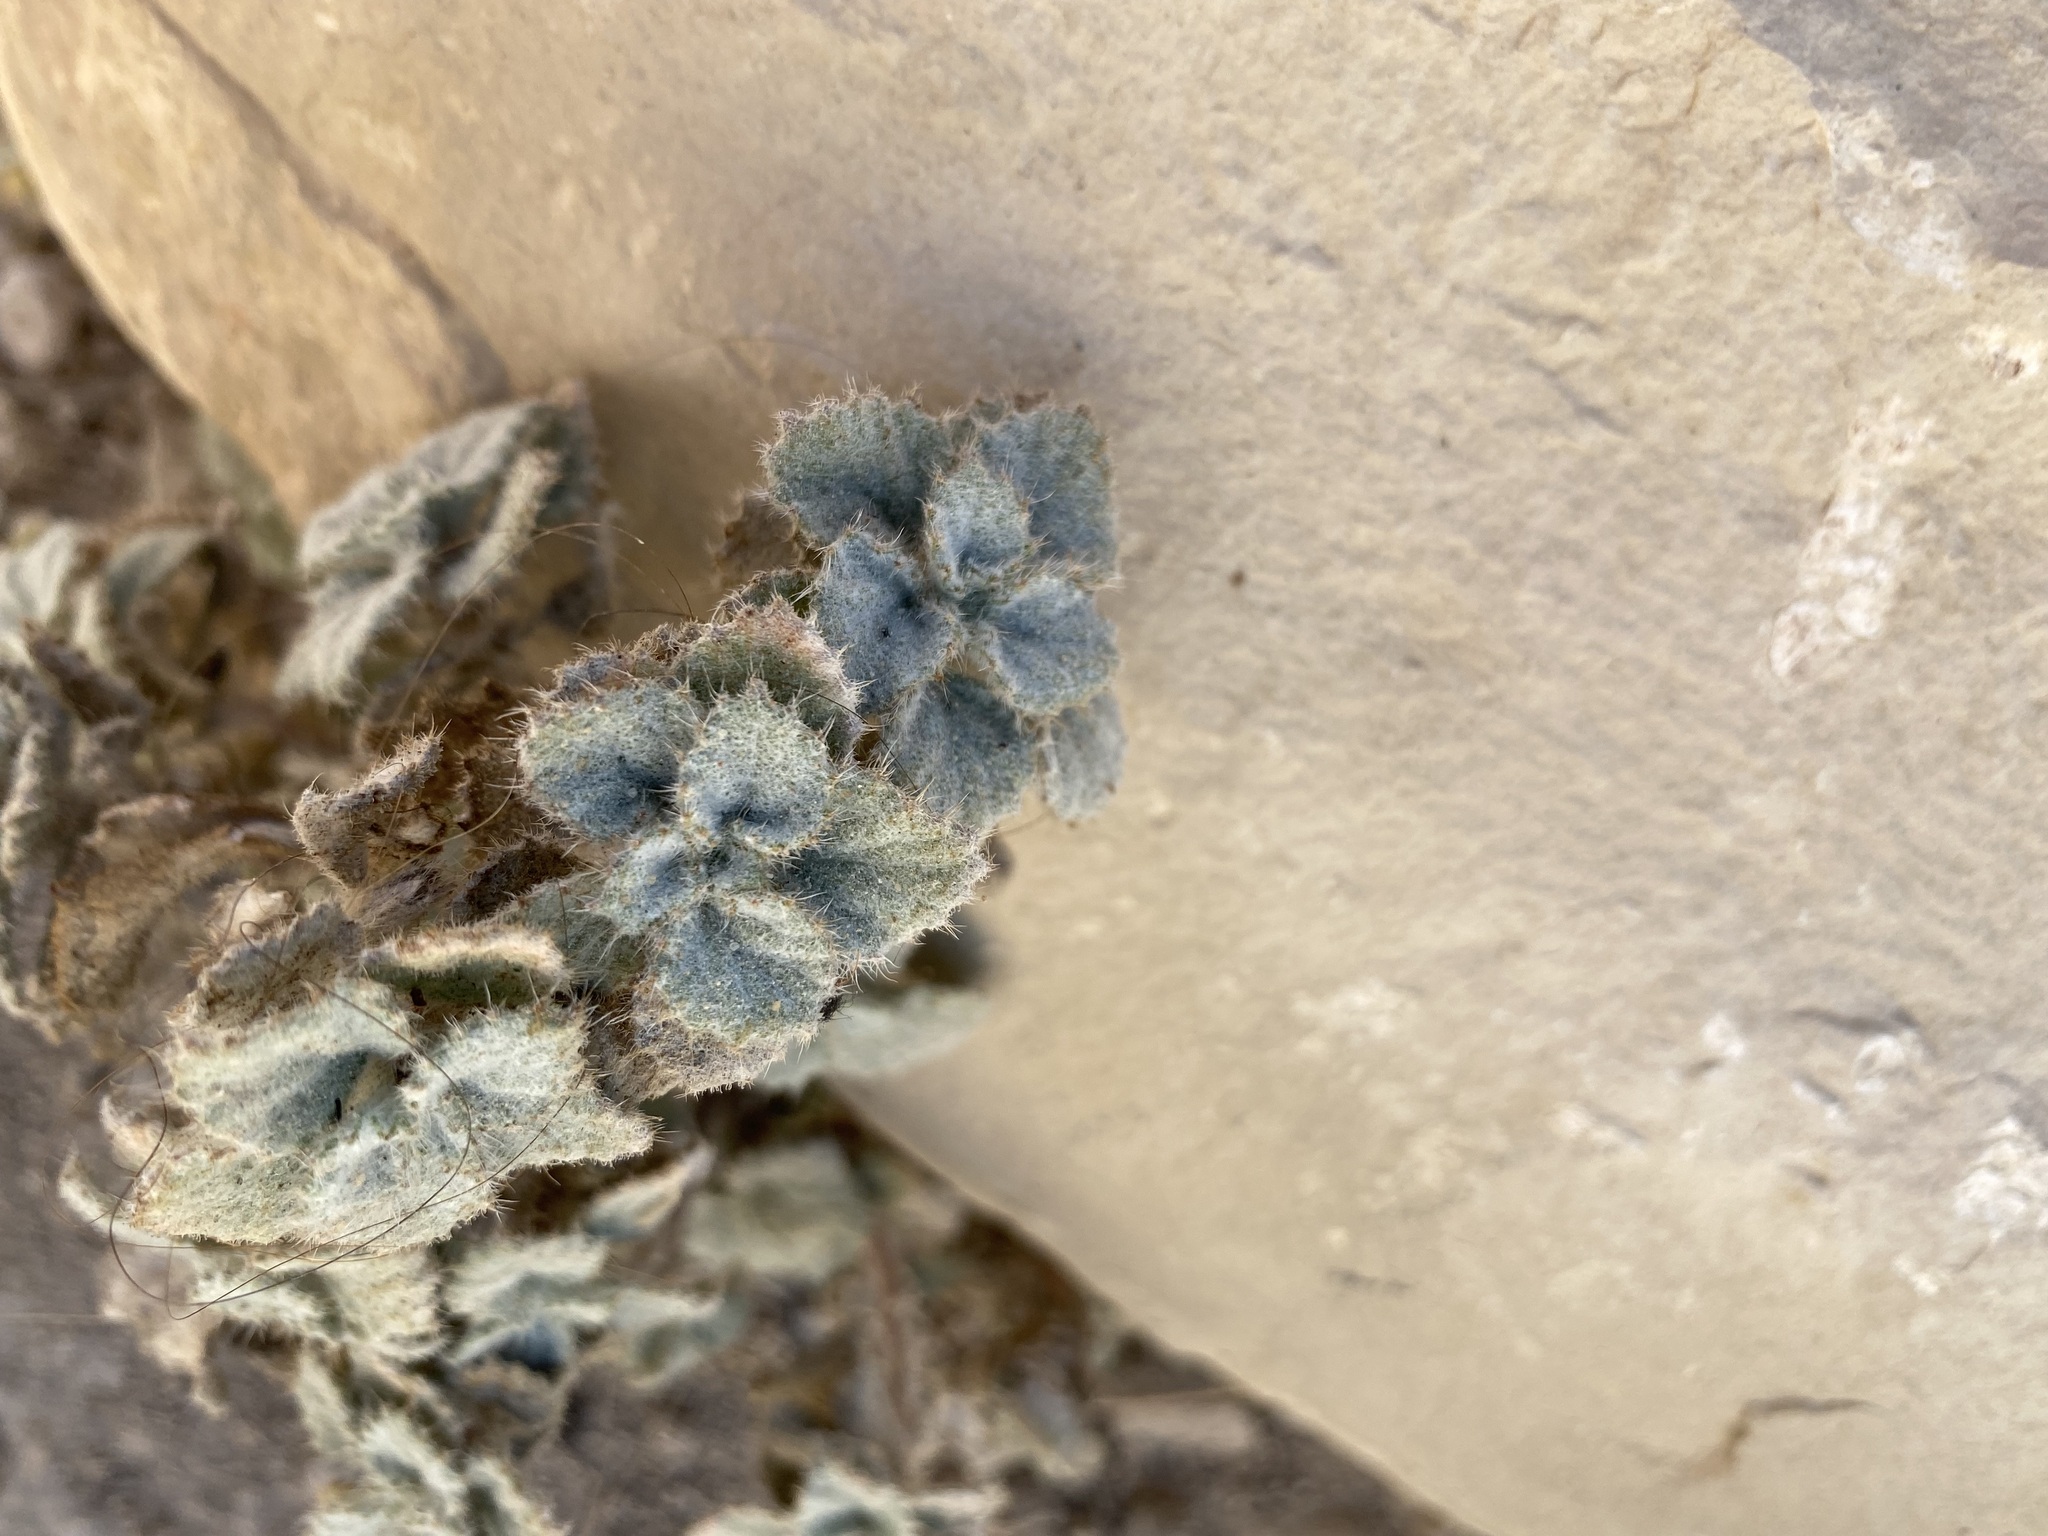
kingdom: Plantae
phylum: Tracheophyta
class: Magnoliopsida
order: Rosales
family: Urticaceae
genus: Forsskaolea
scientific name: Forsskaolea tenacissima
